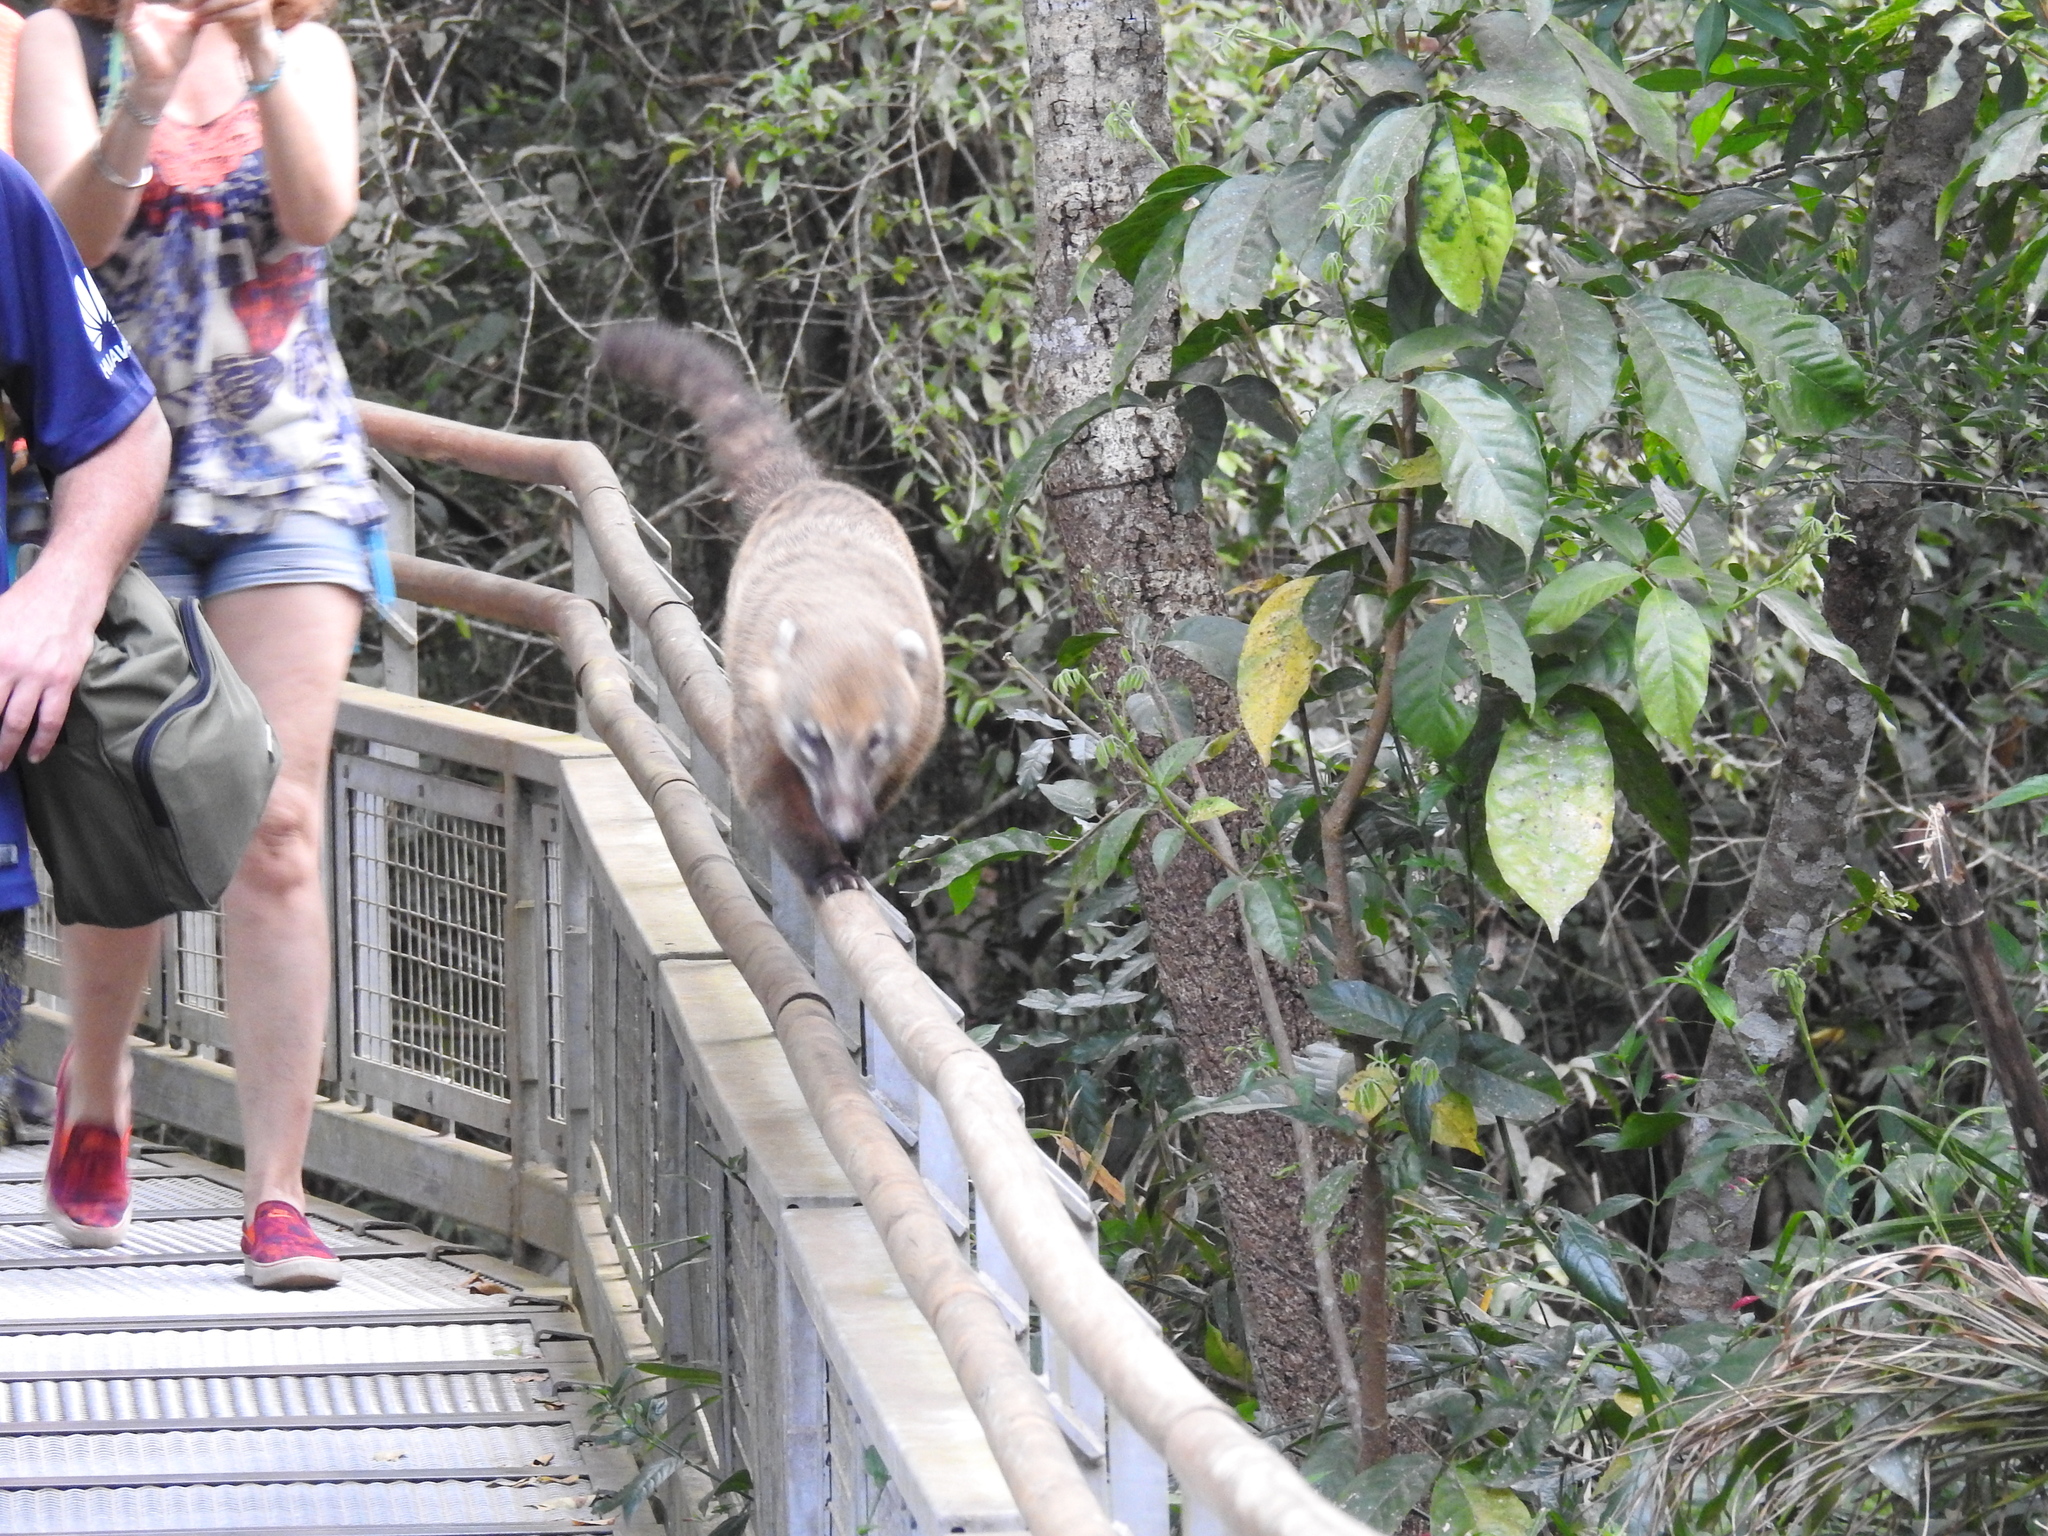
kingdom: Animalia
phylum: Chordata
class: Mammalia
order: Carnivora
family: Procyonidae
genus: Nasua
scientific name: Nasua nasua
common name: South american coati
